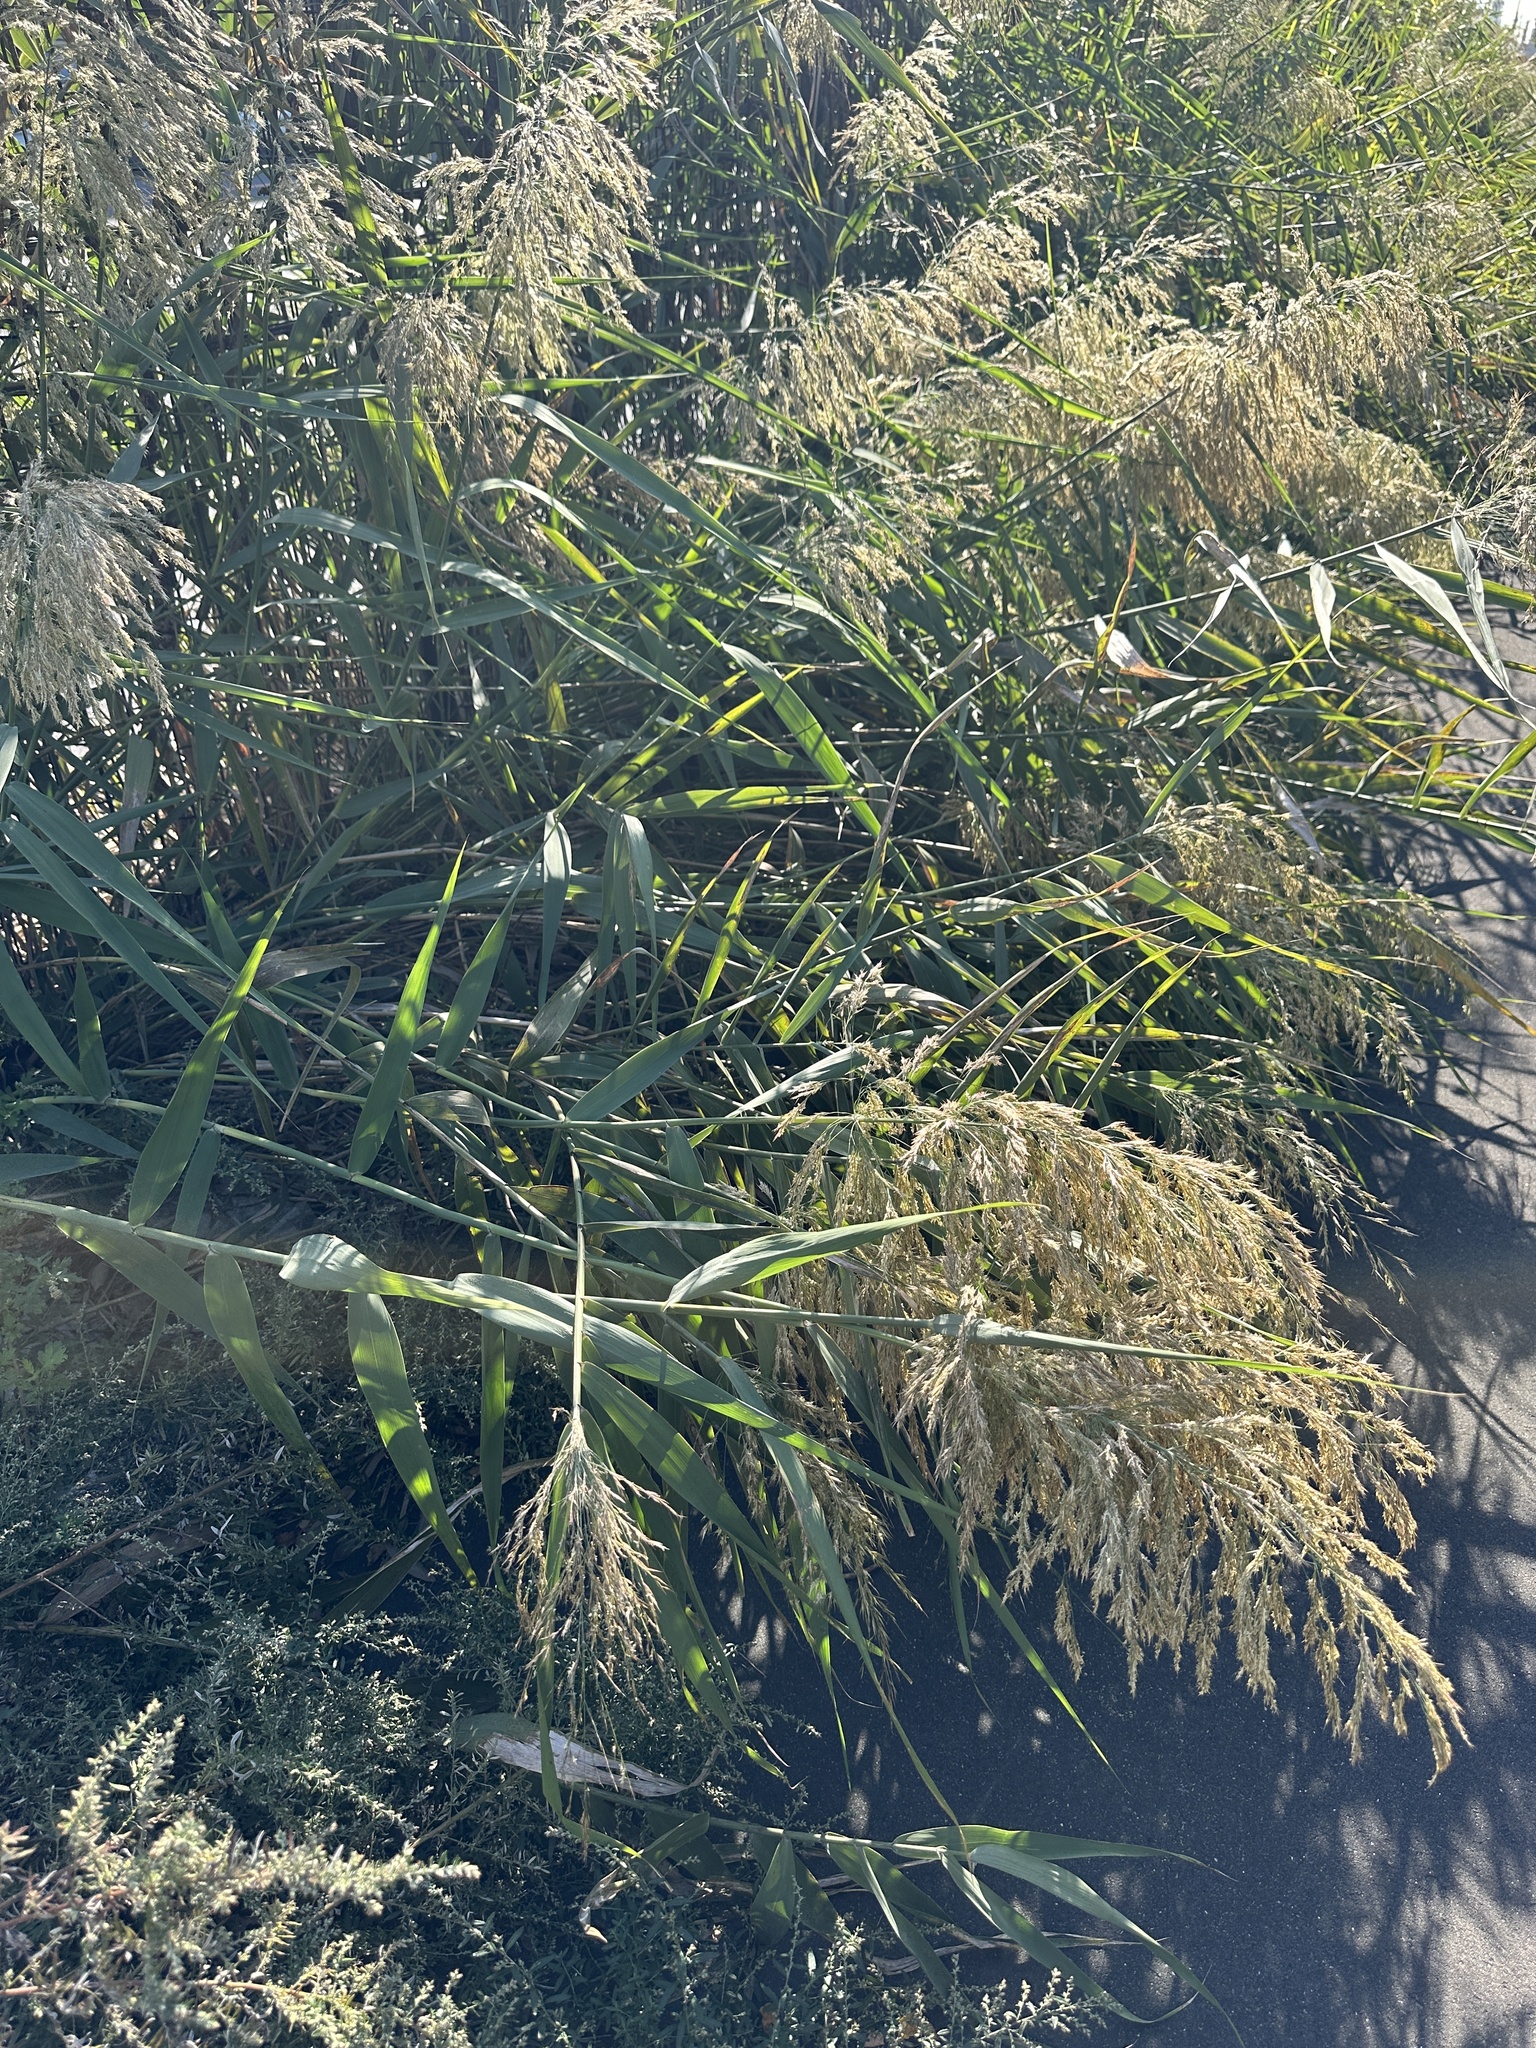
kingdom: Plantae
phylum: Tracheophyta
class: Liliopsida
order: Poales
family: Poaceae
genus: Phragmites
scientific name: Phragmites australis
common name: Common reed
